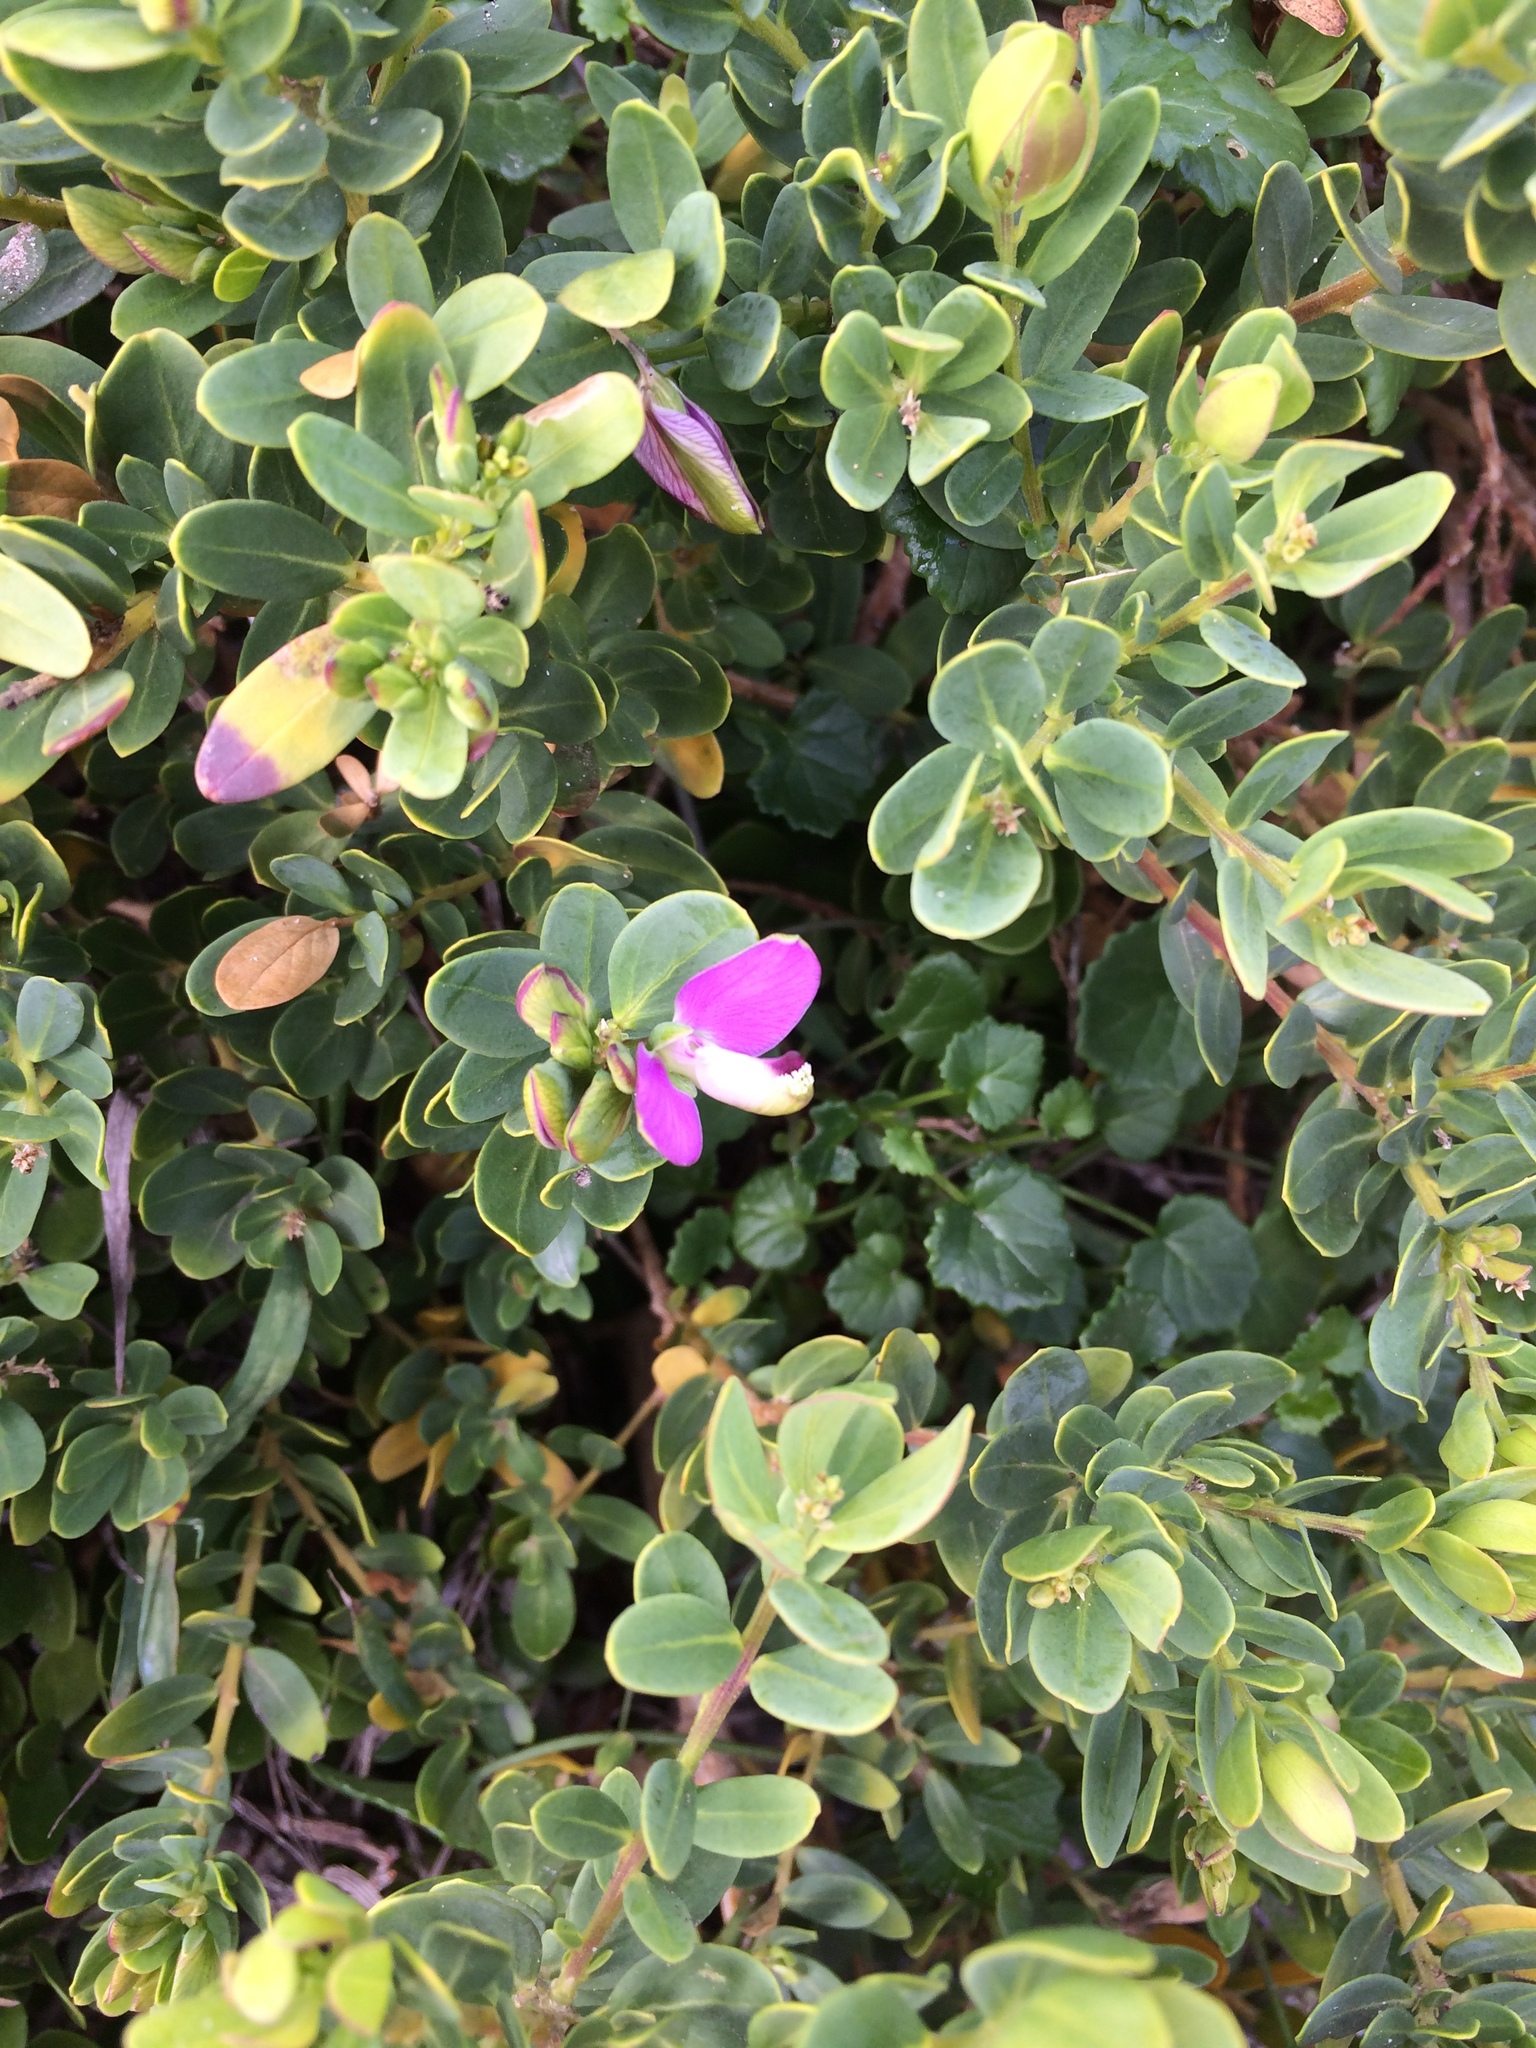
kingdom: Plantae
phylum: Tracheophyta
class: Magnoliopsida
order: Fabales
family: Polygalaceae
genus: Polygala
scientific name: Polygala myrtifolia
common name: Myrtle-leaf milkwort
